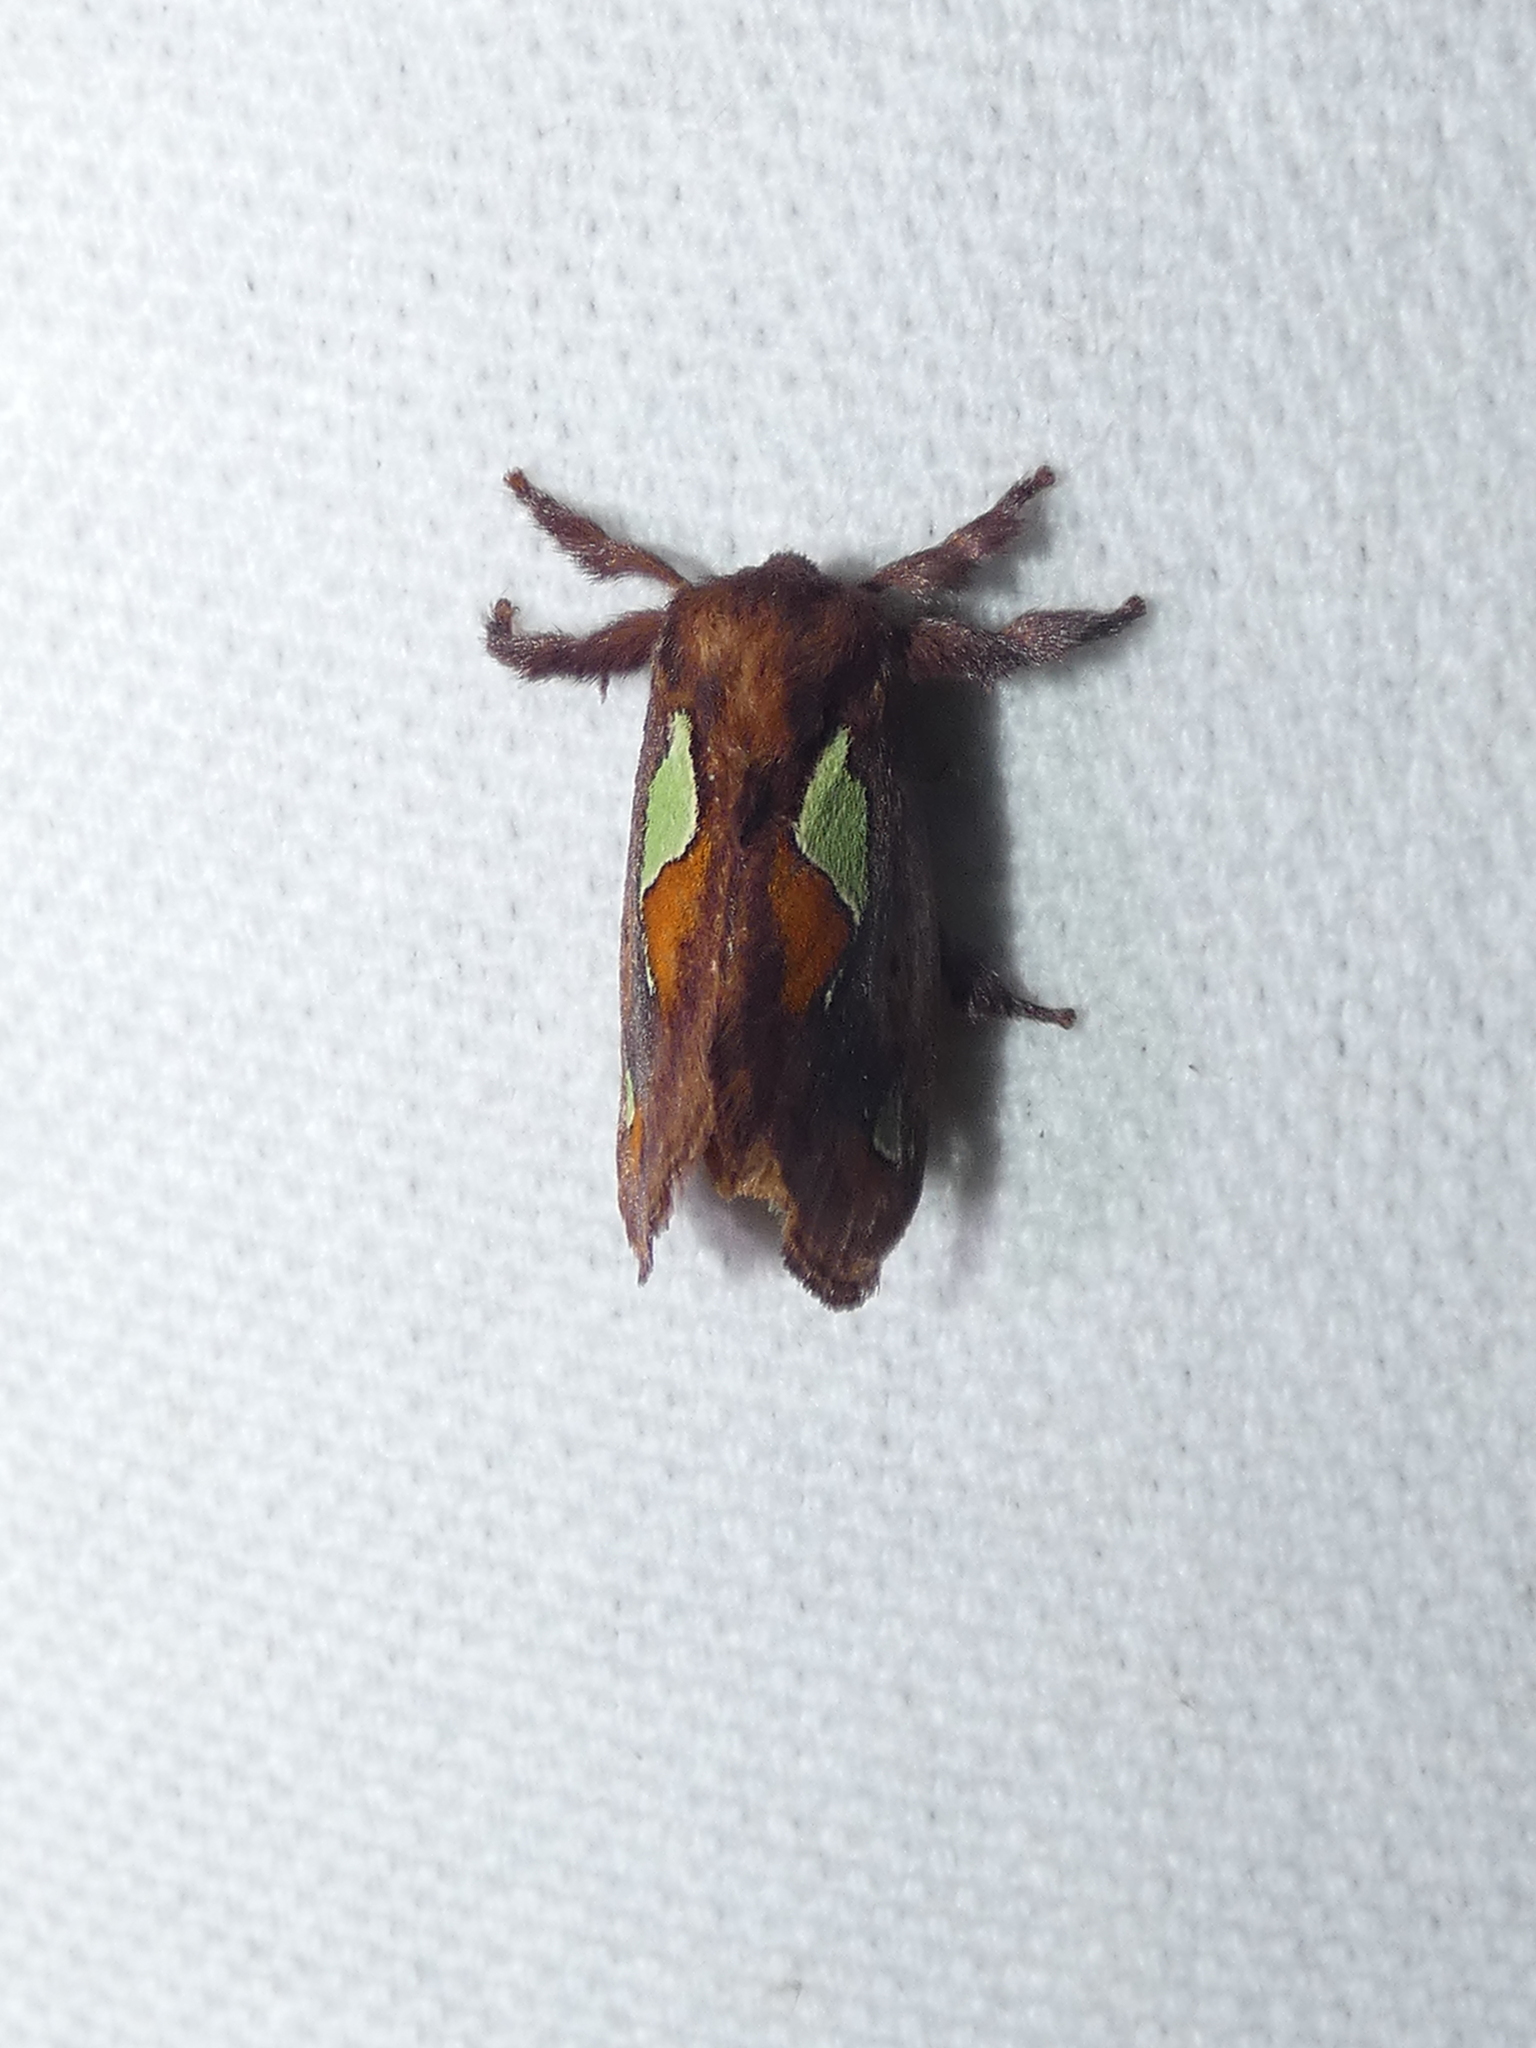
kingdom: Animalia
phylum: Arthropoda
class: Insecta
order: Lepidoptera
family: Limacodidae
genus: Euclea
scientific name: Euclea delphinii
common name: Spiny oak-slug moth
